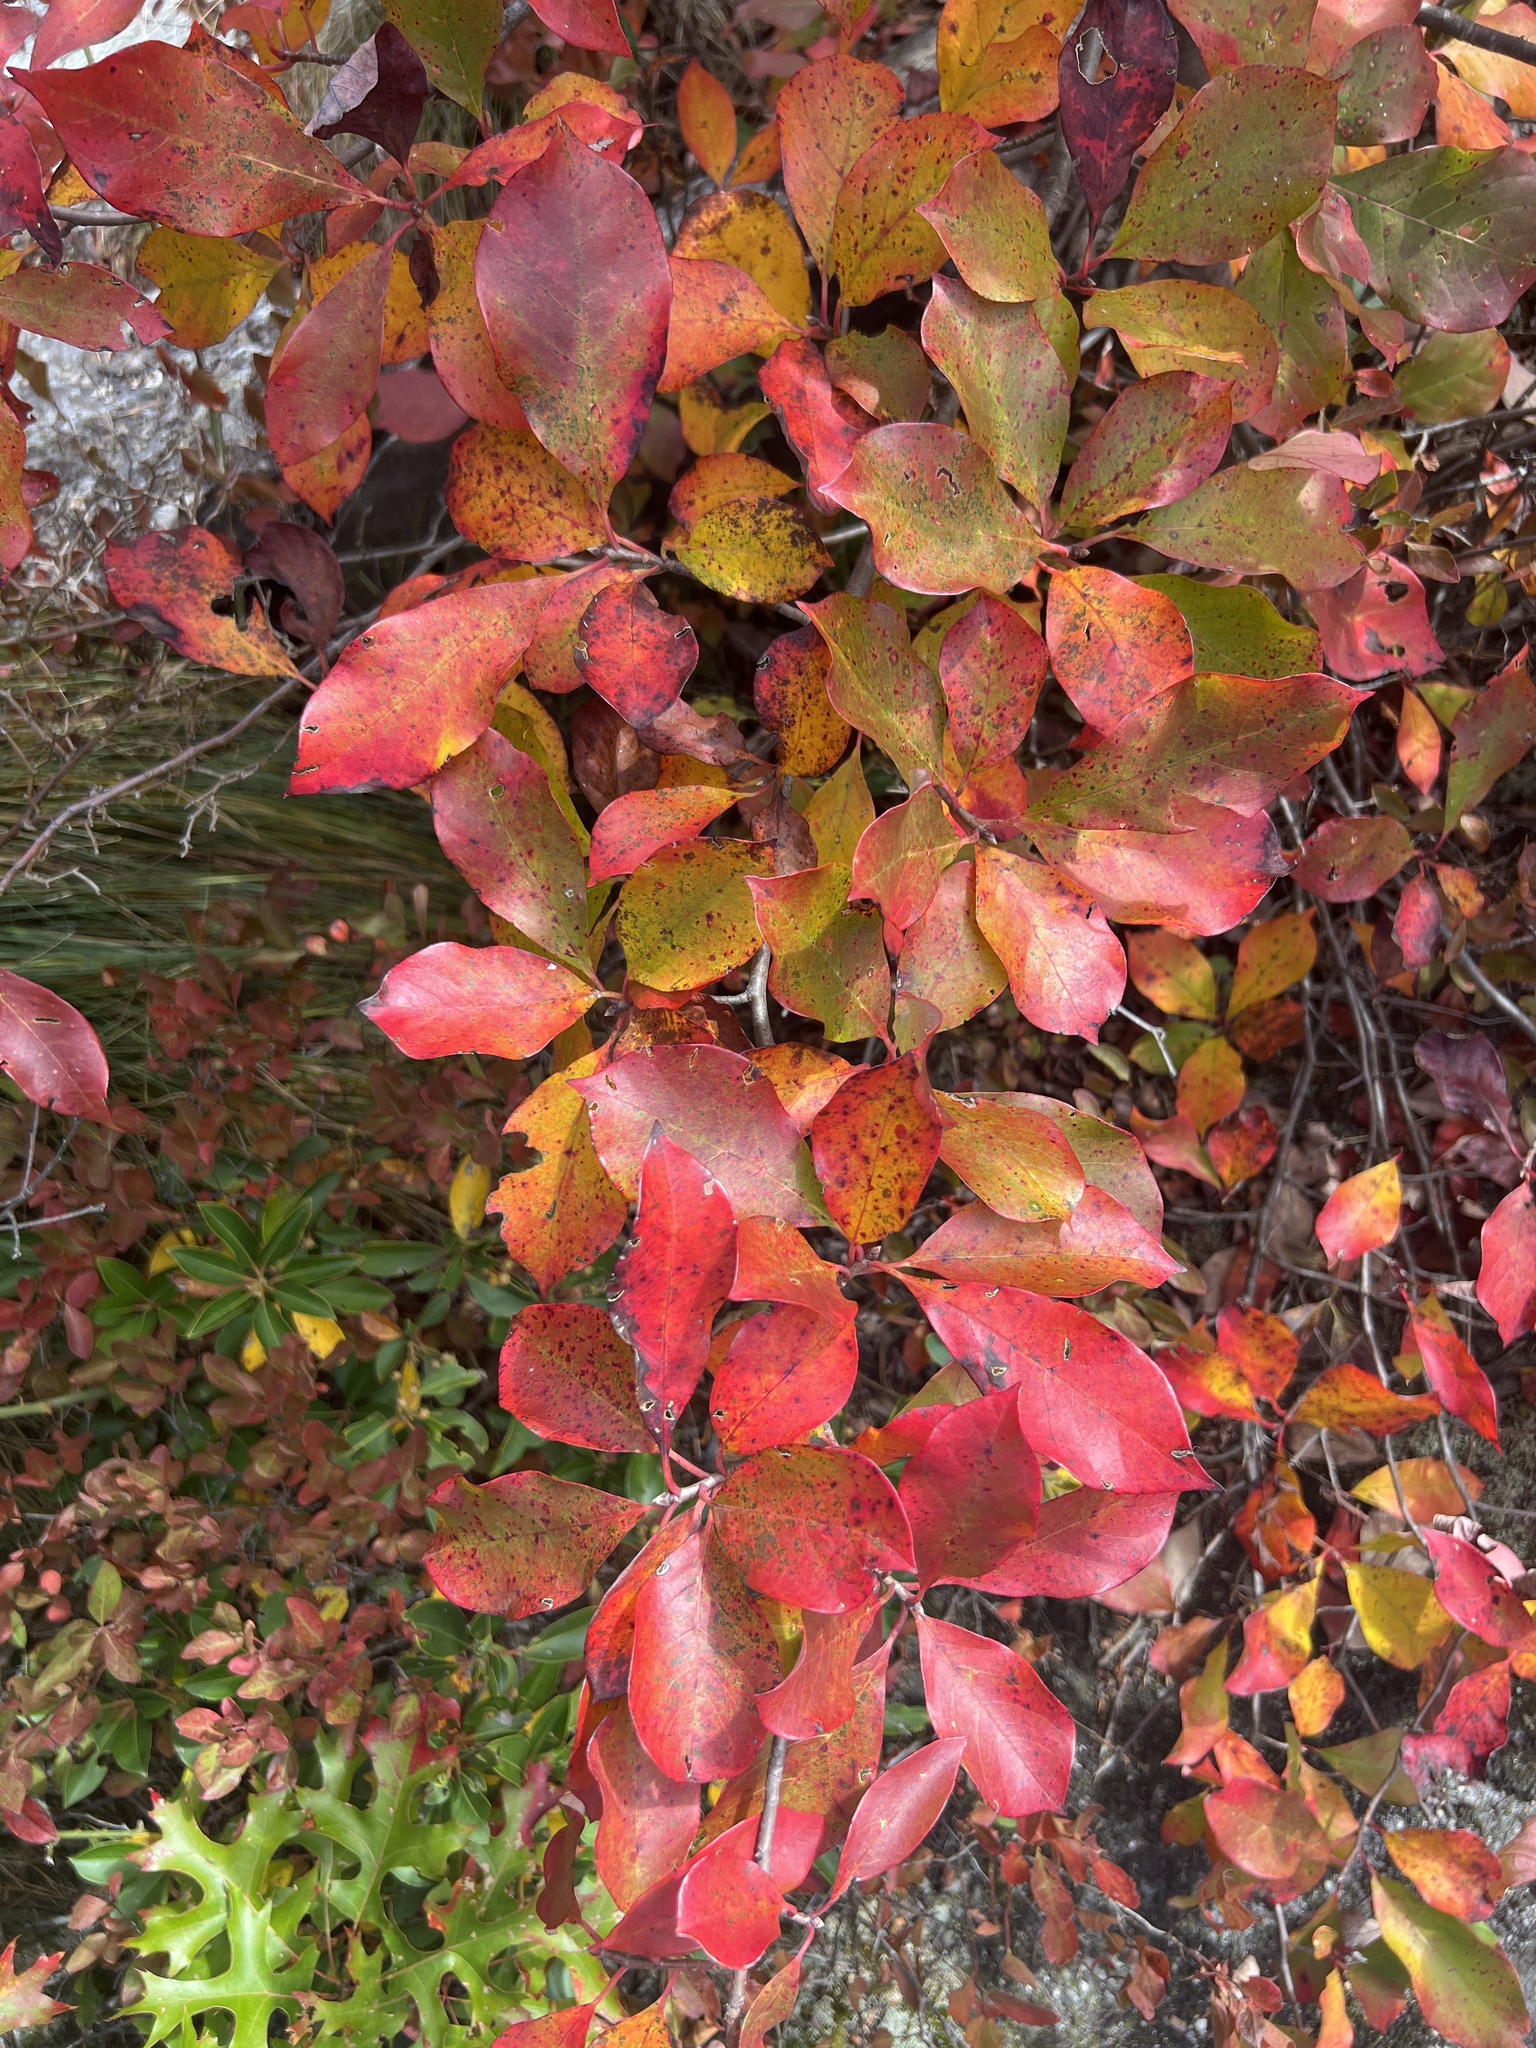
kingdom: Plantae
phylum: Tracheophyta
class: Magnoliopsida
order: Cornales
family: Nyssaceae
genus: Nyssa
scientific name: Nyssa sylvatica
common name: Black tupelo
